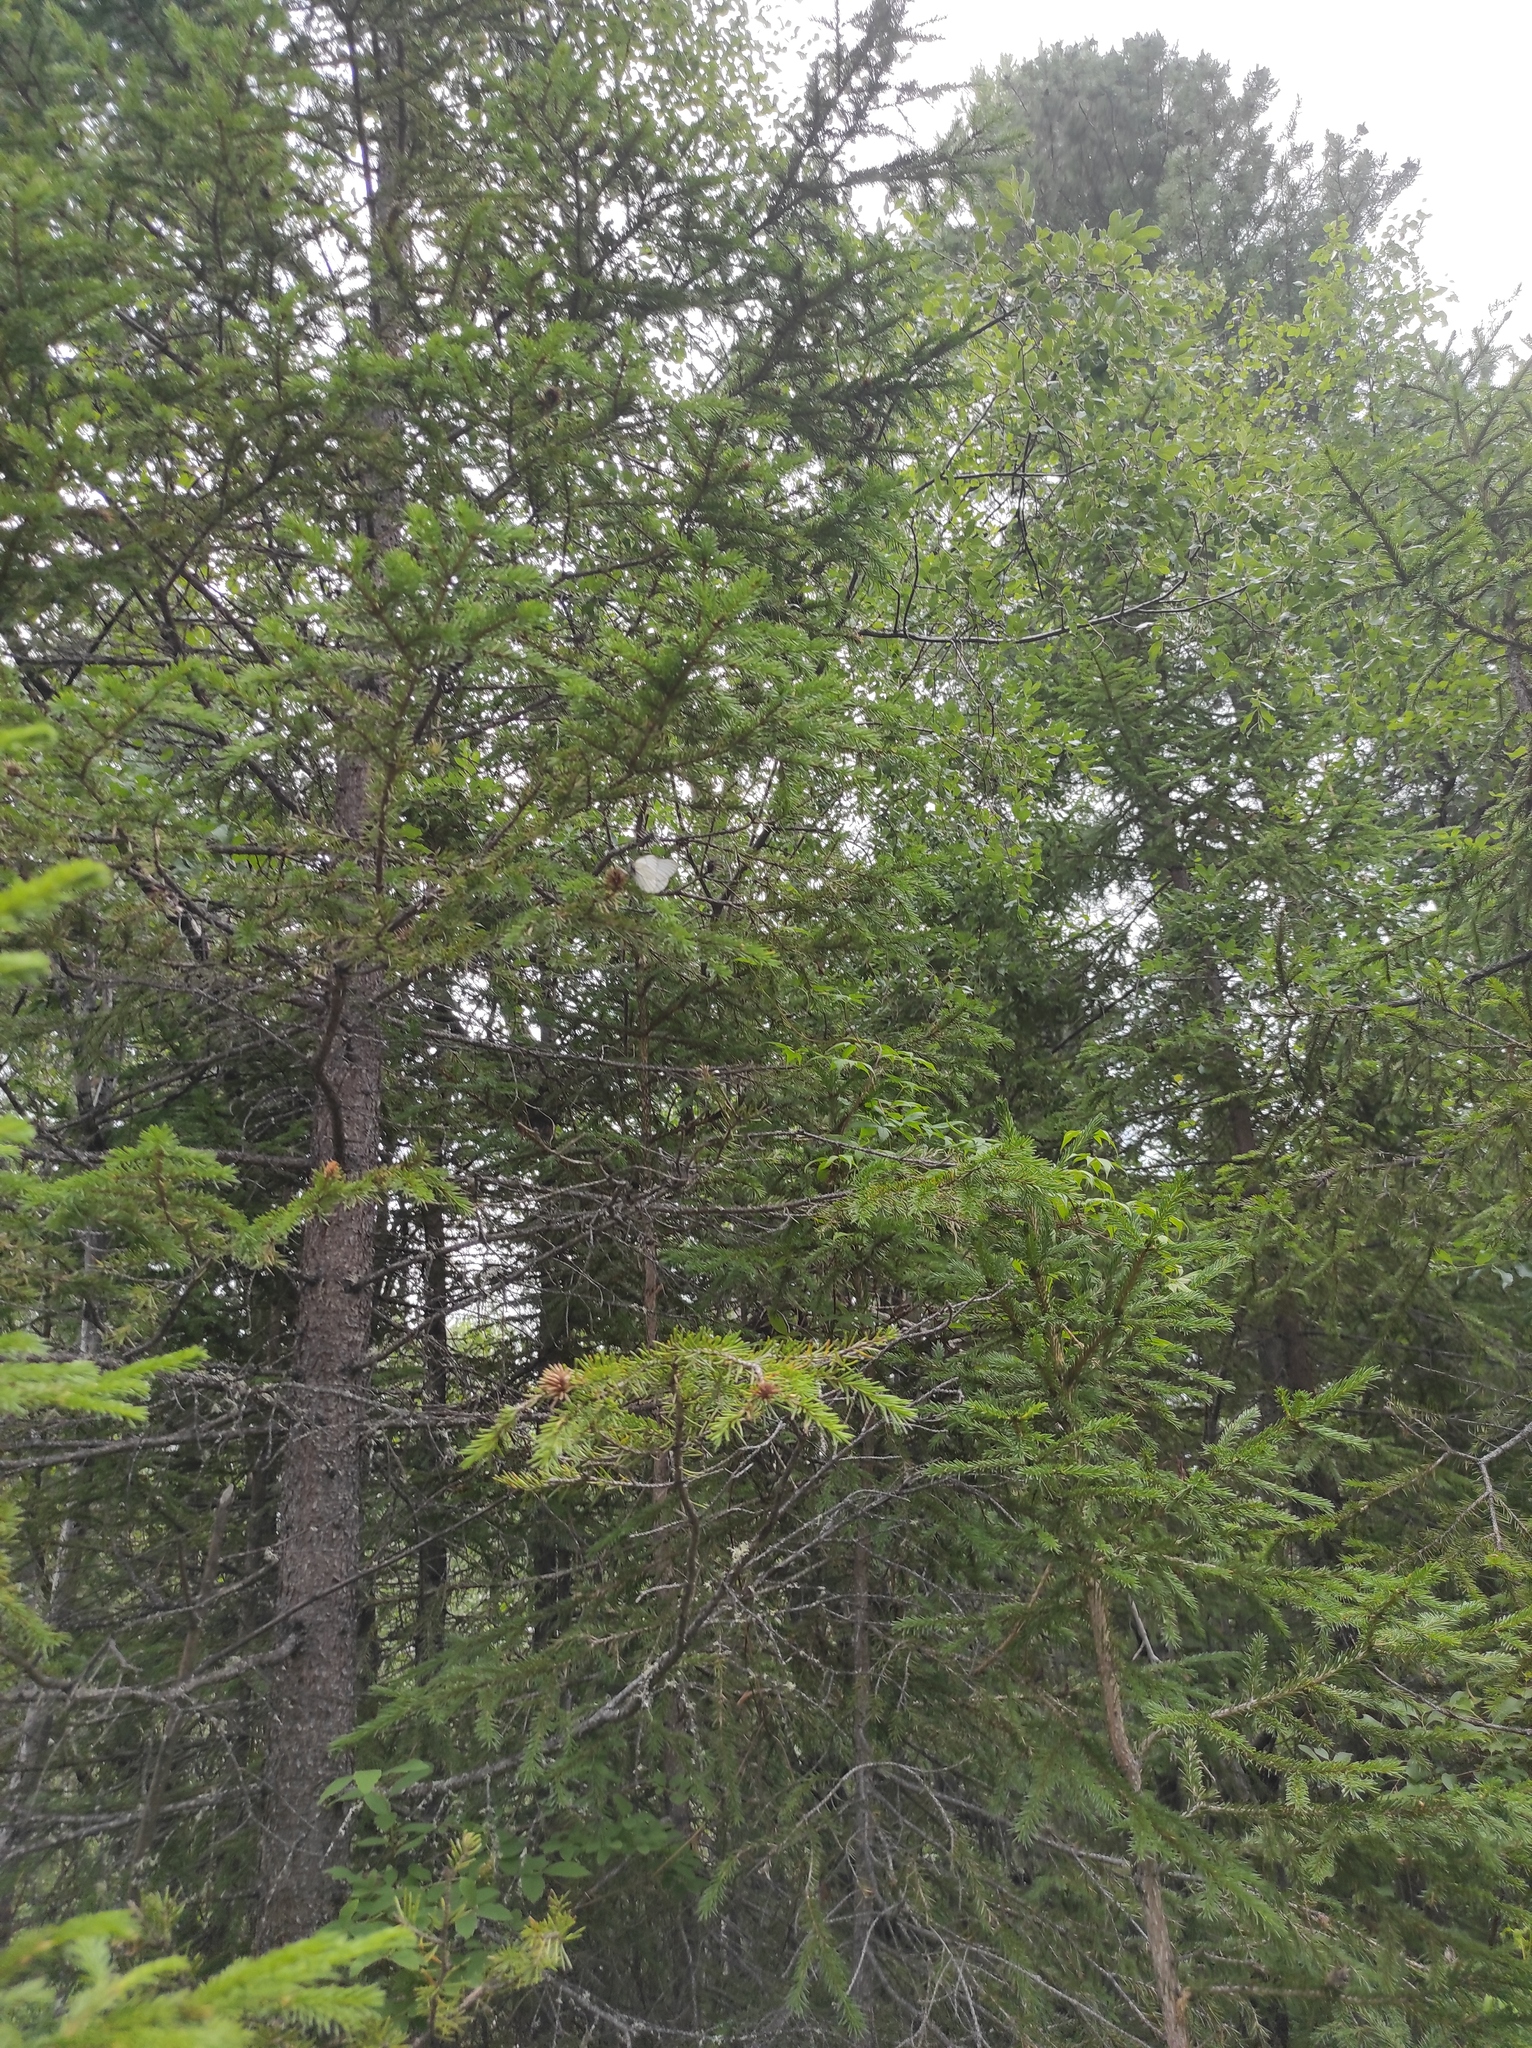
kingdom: Plantae
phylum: Tracheophyta
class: Pinopsida
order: Pinales
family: Pinaceae
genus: Picea
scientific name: Picea obovata
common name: Siberian spruce
